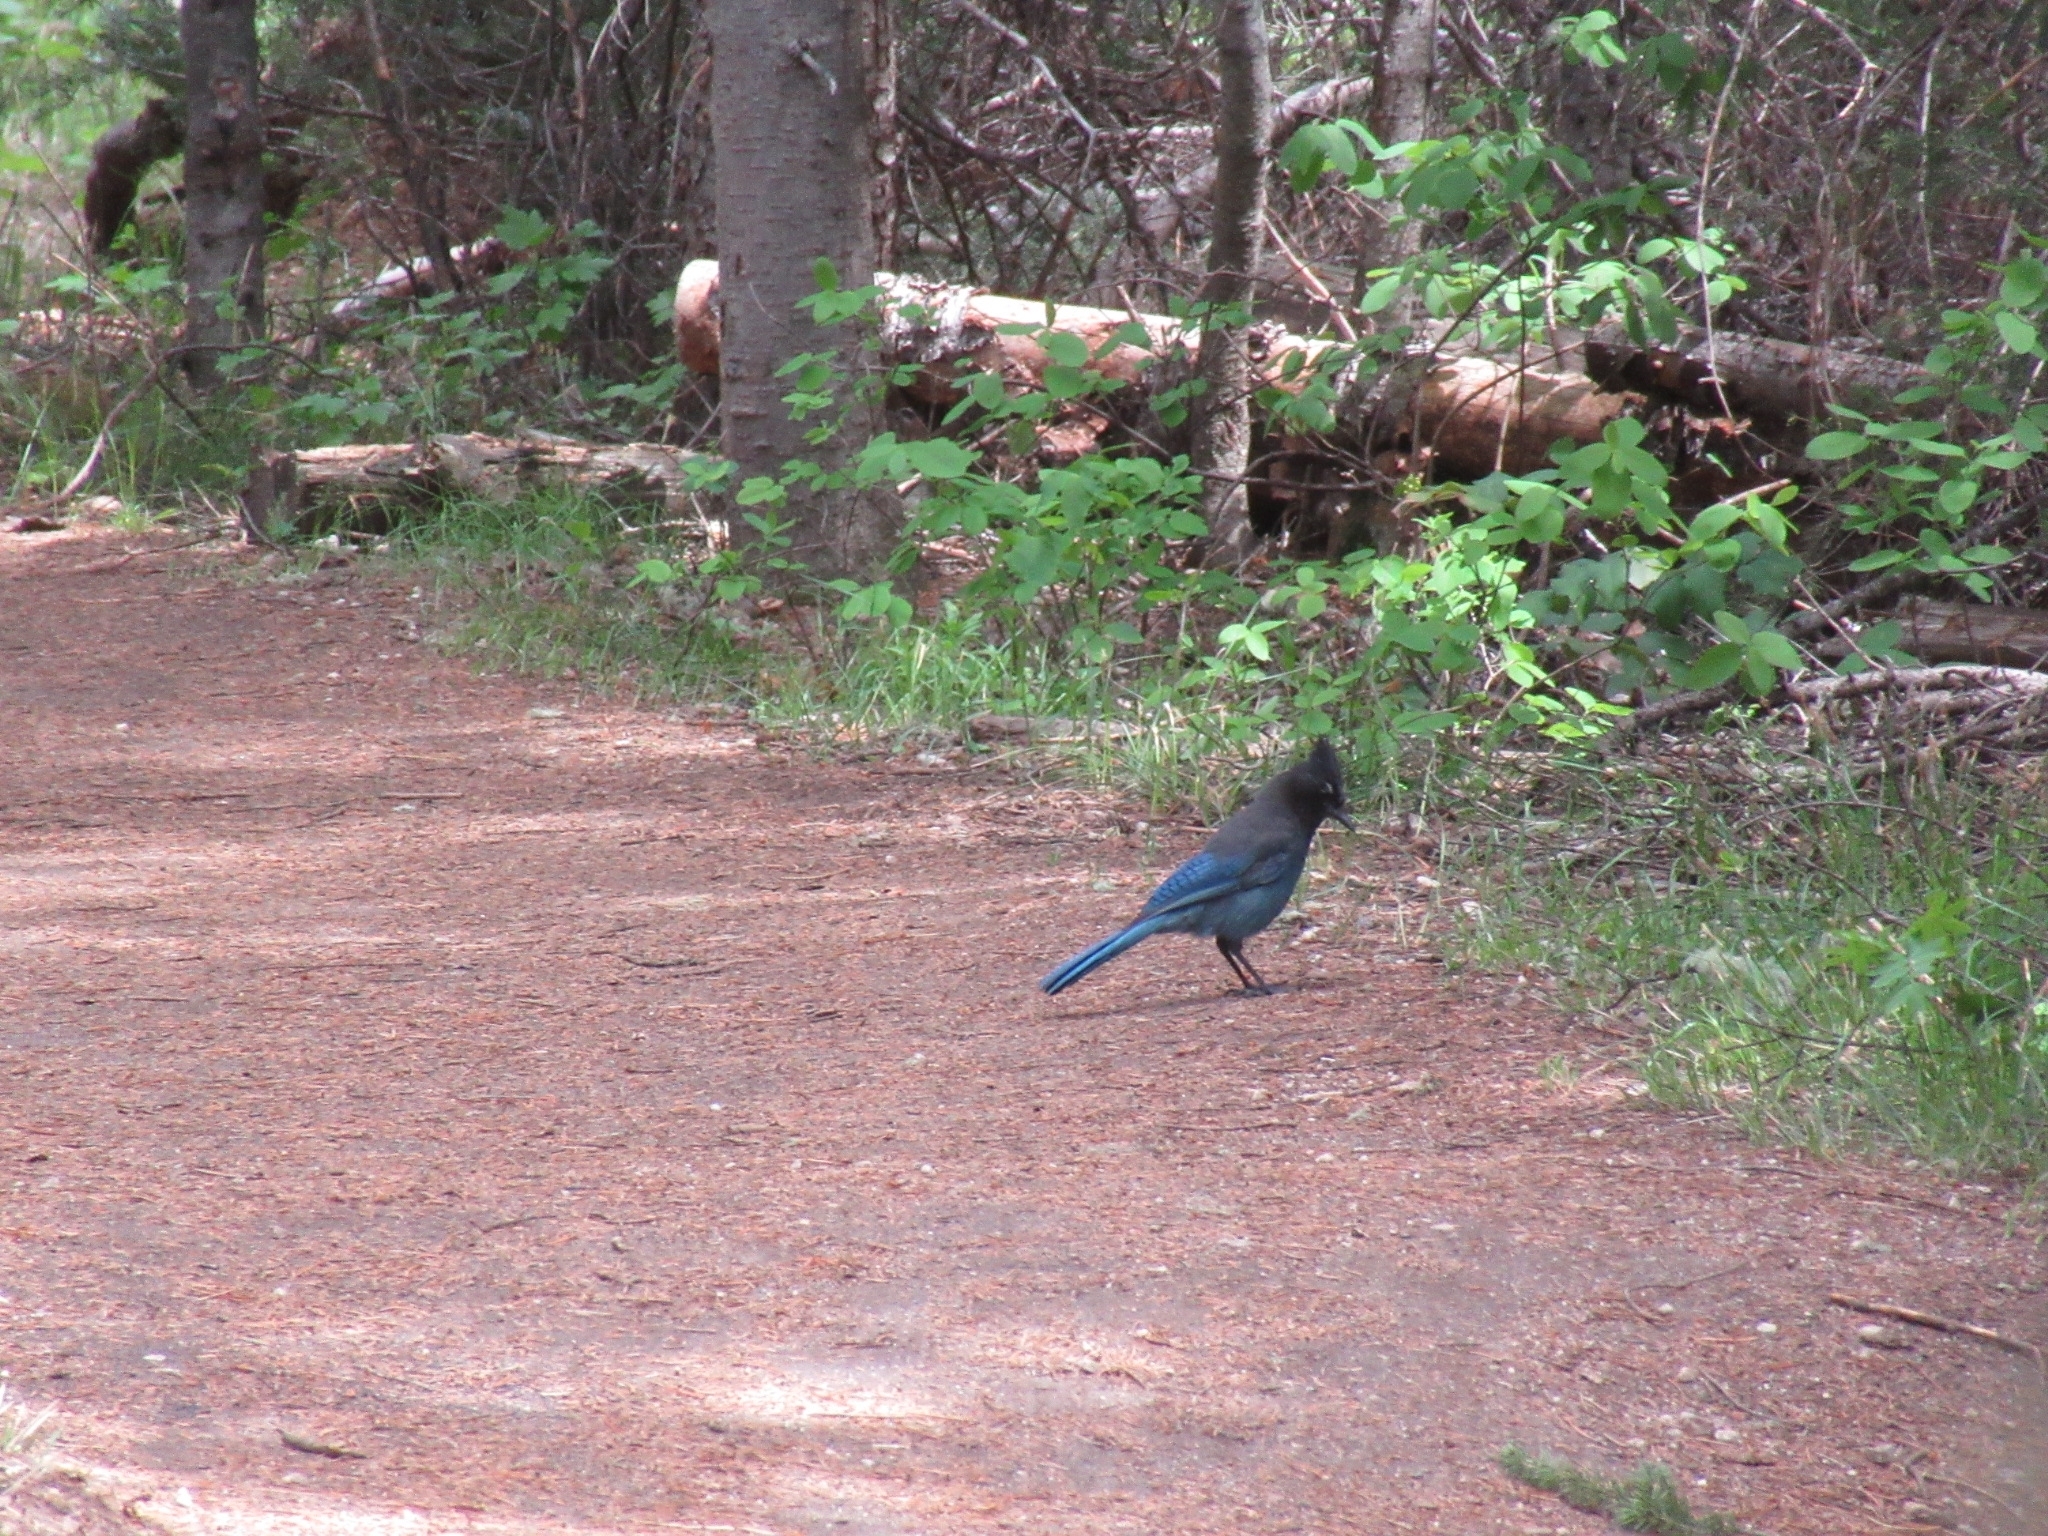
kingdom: Animalia
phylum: Chordata
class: Aves
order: Passeriformes
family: Corvidae
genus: Cyanocitta
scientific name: Cyanocitta stelleri
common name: Steller's jay
